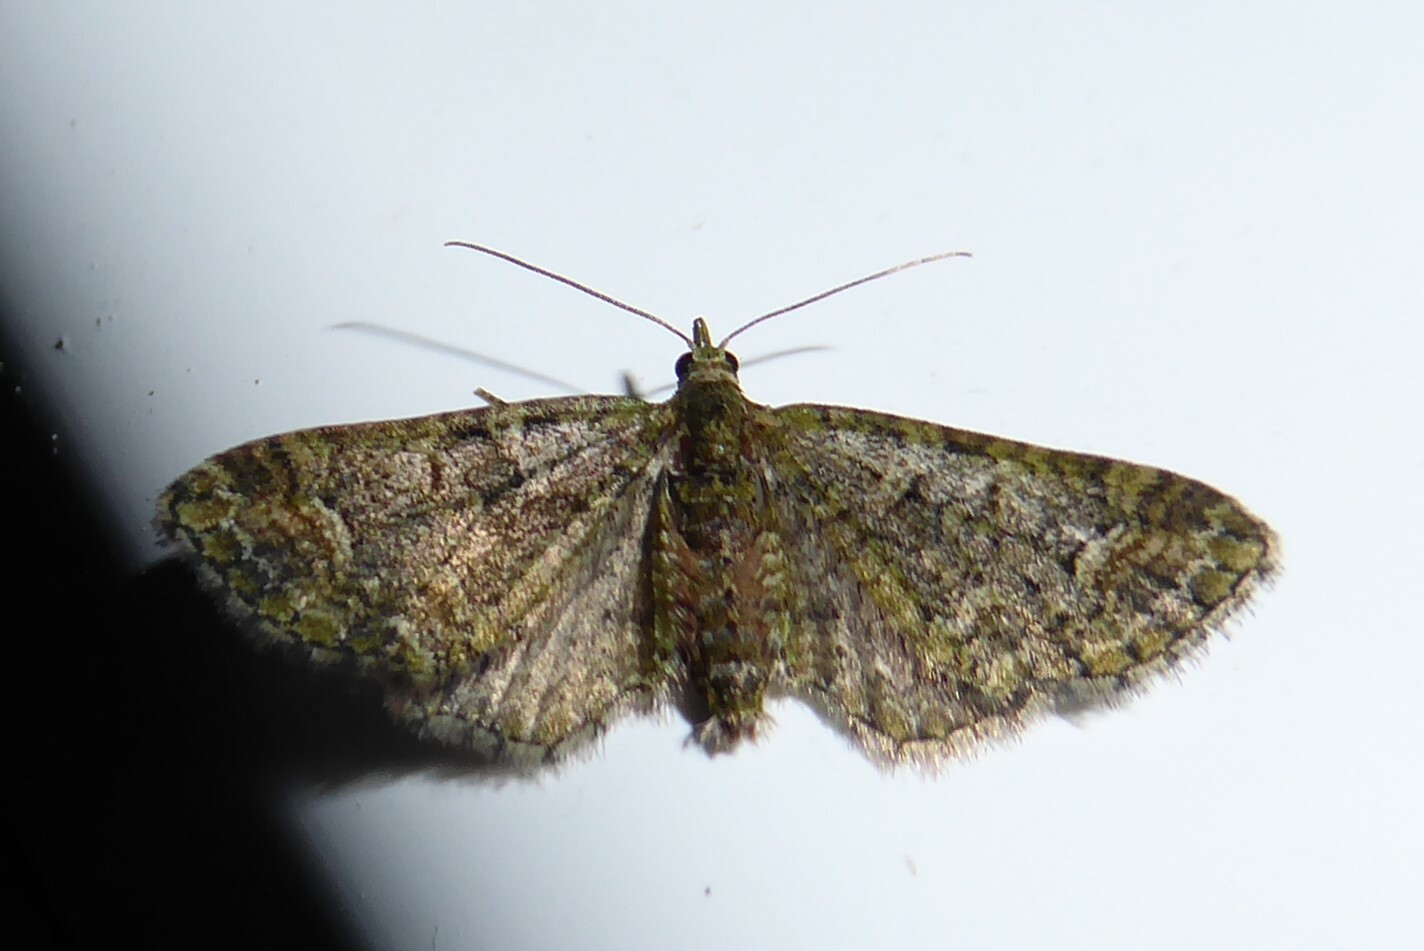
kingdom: Animalia
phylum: Arthropoda
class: Insecta
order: Lepidoptera
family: Geometridae
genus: Idaea
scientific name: Idaea mutanda
